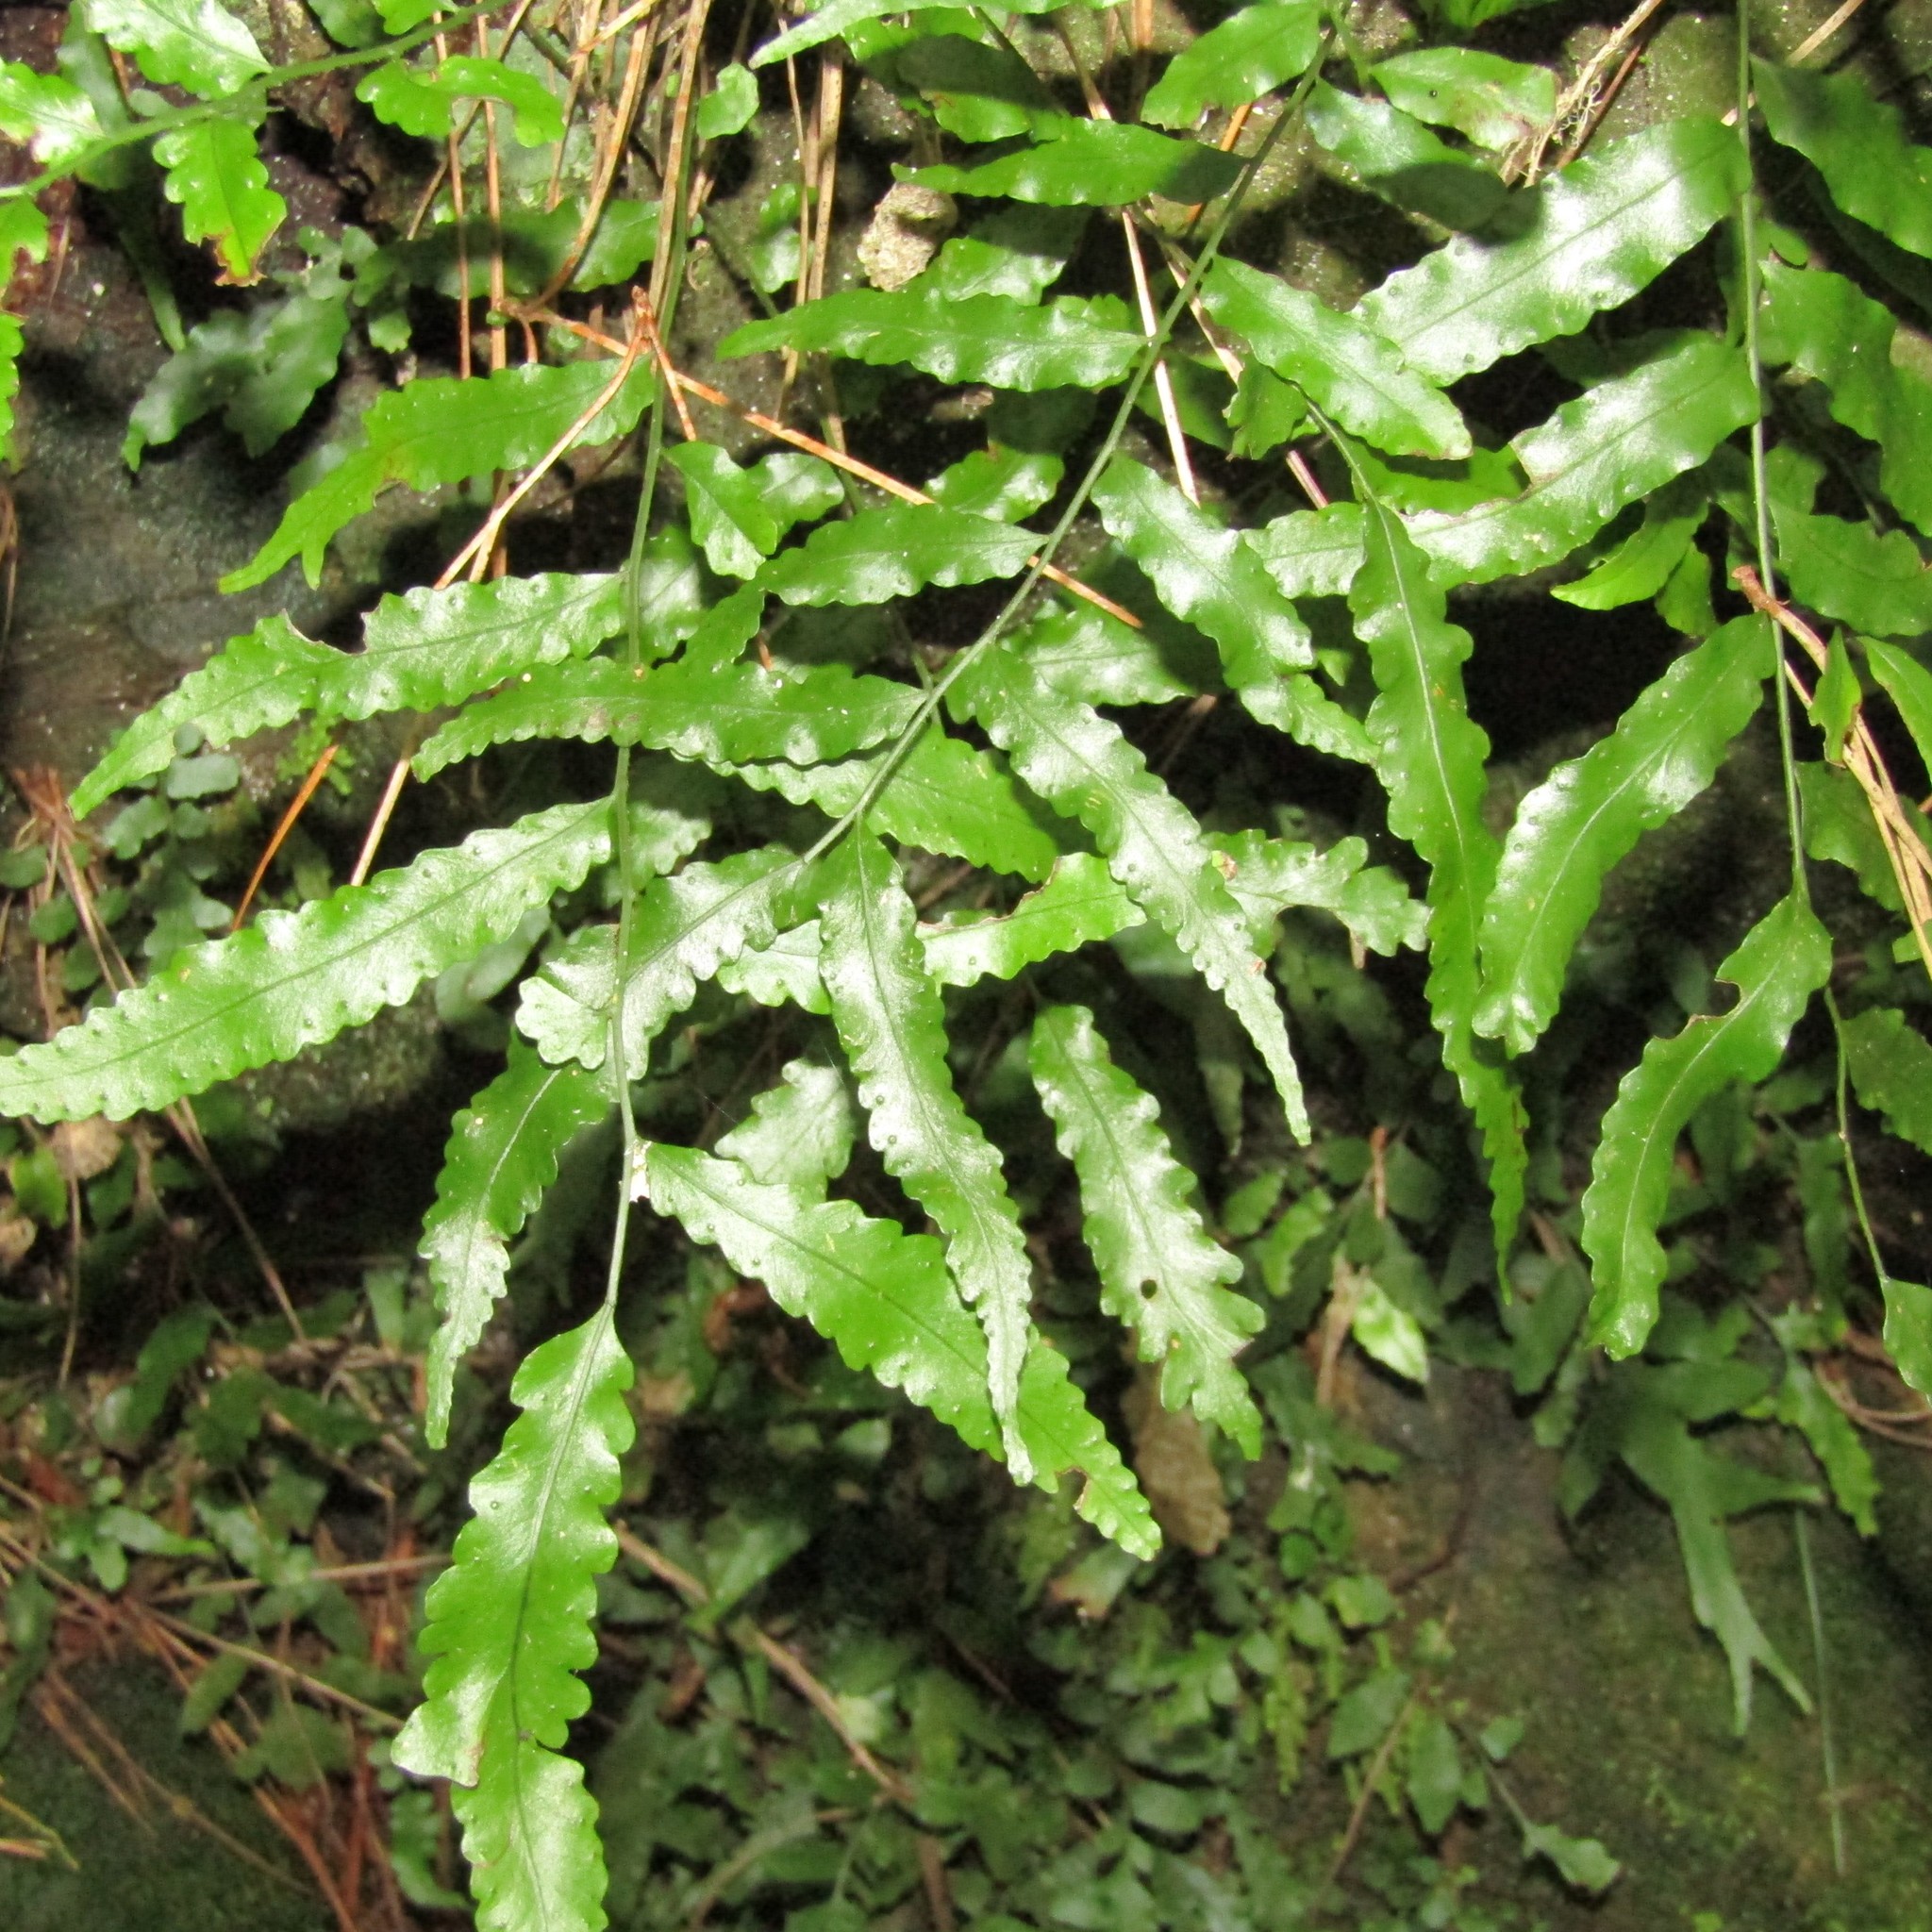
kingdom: Plantae
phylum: Tracheophyta
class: Polypodiopsida
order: Polypodiales
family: Tectariaceae
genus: Arthropteris
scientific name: Arthropteris tenella
